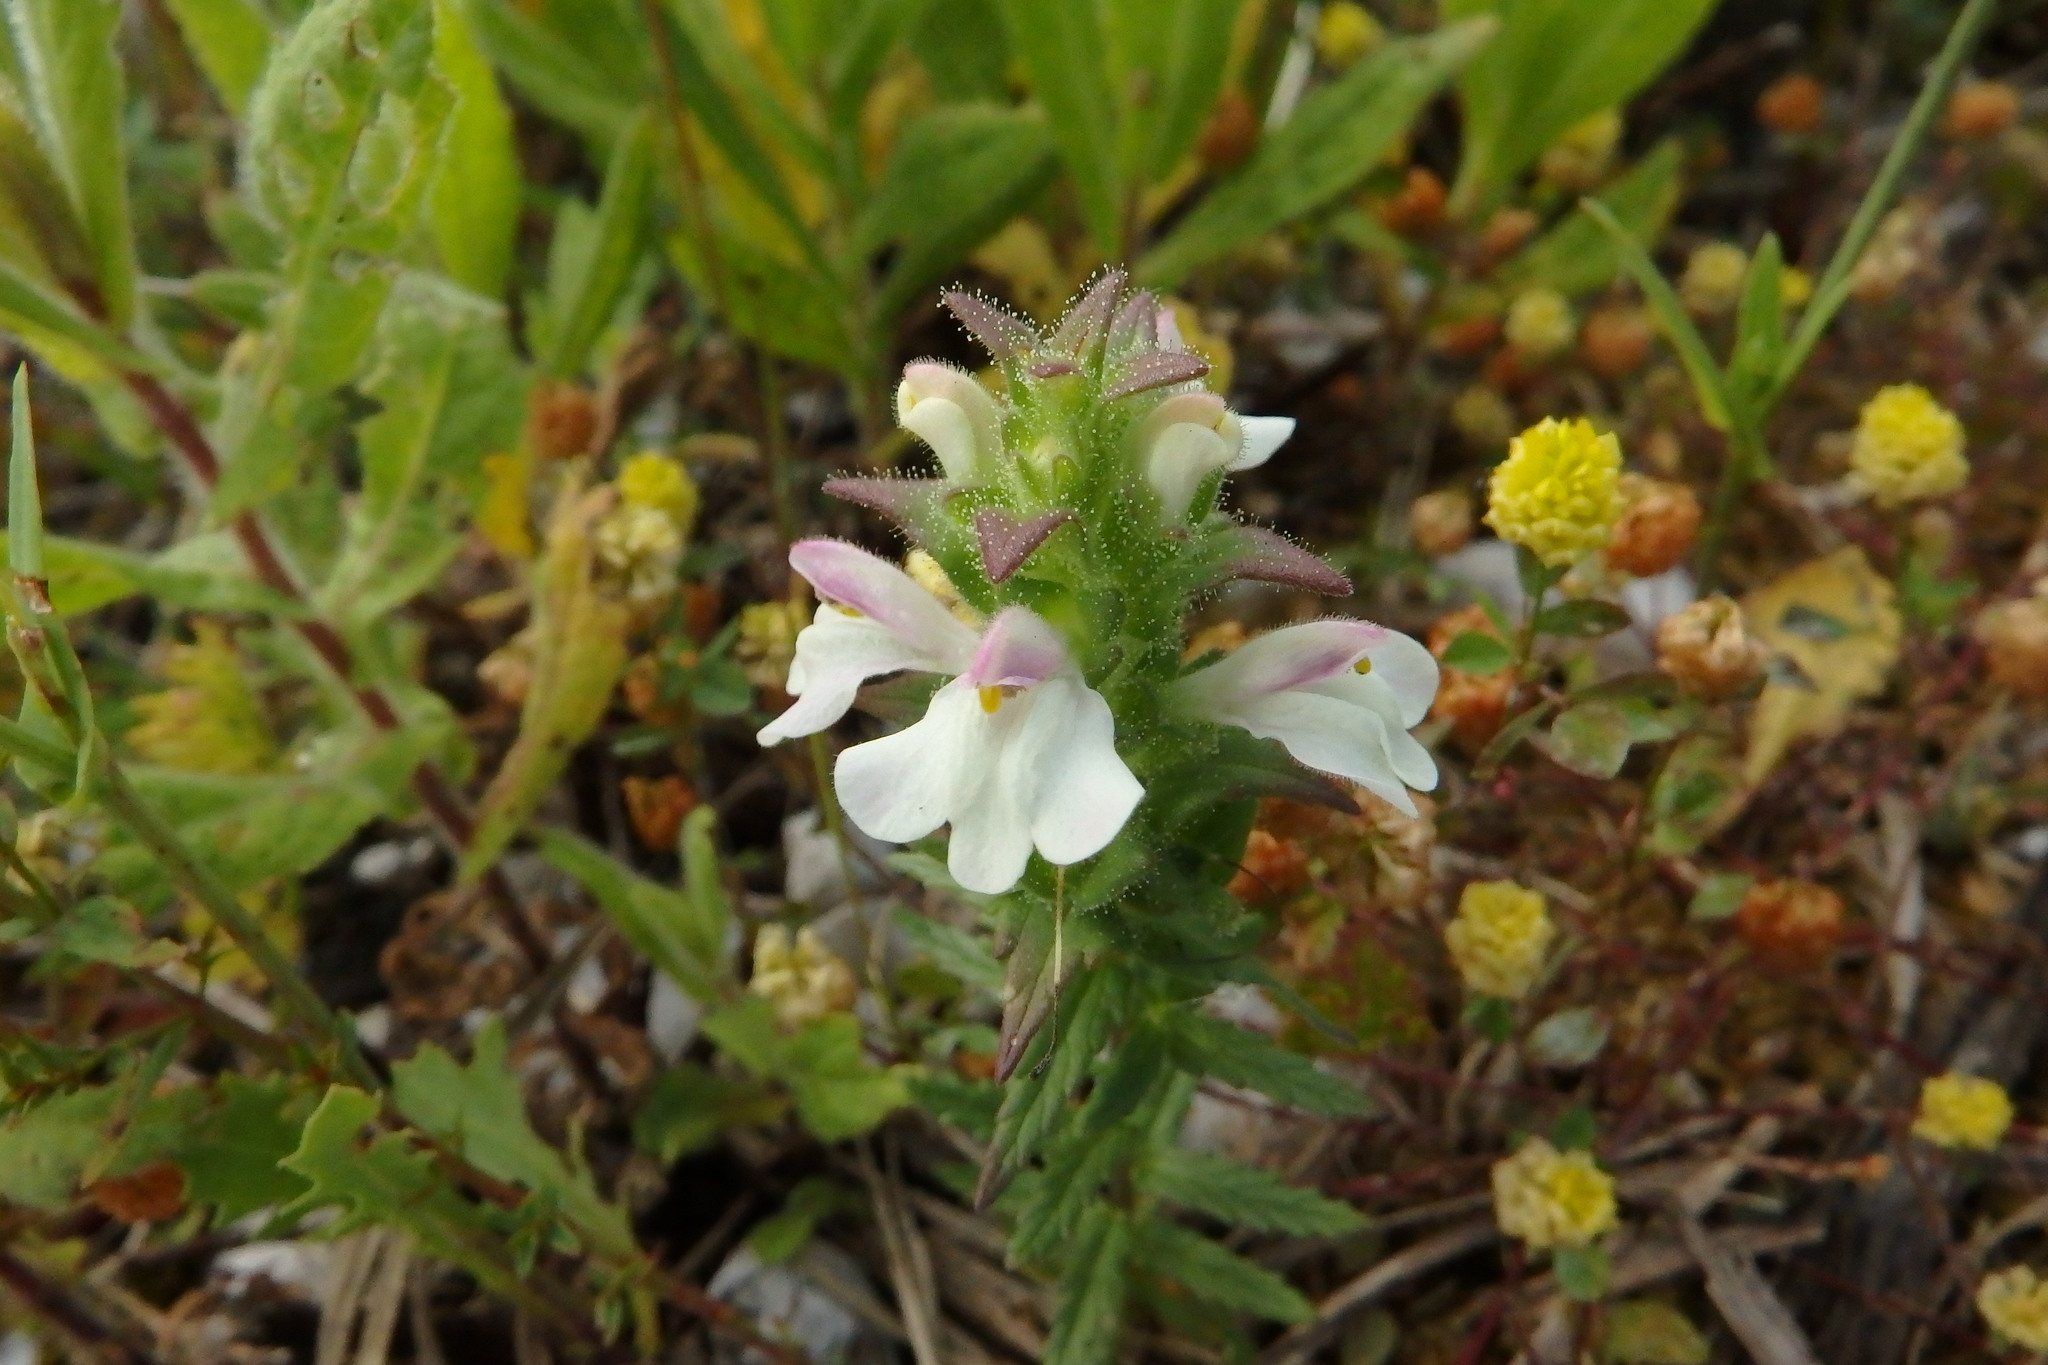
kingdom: Plantae
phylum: Tracheophyta
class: Magnoliopsida
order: Lamiales
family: Orobanchaceae
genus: Bellardia
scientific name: Bellardia trixago
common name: Mediterranean lineseed
